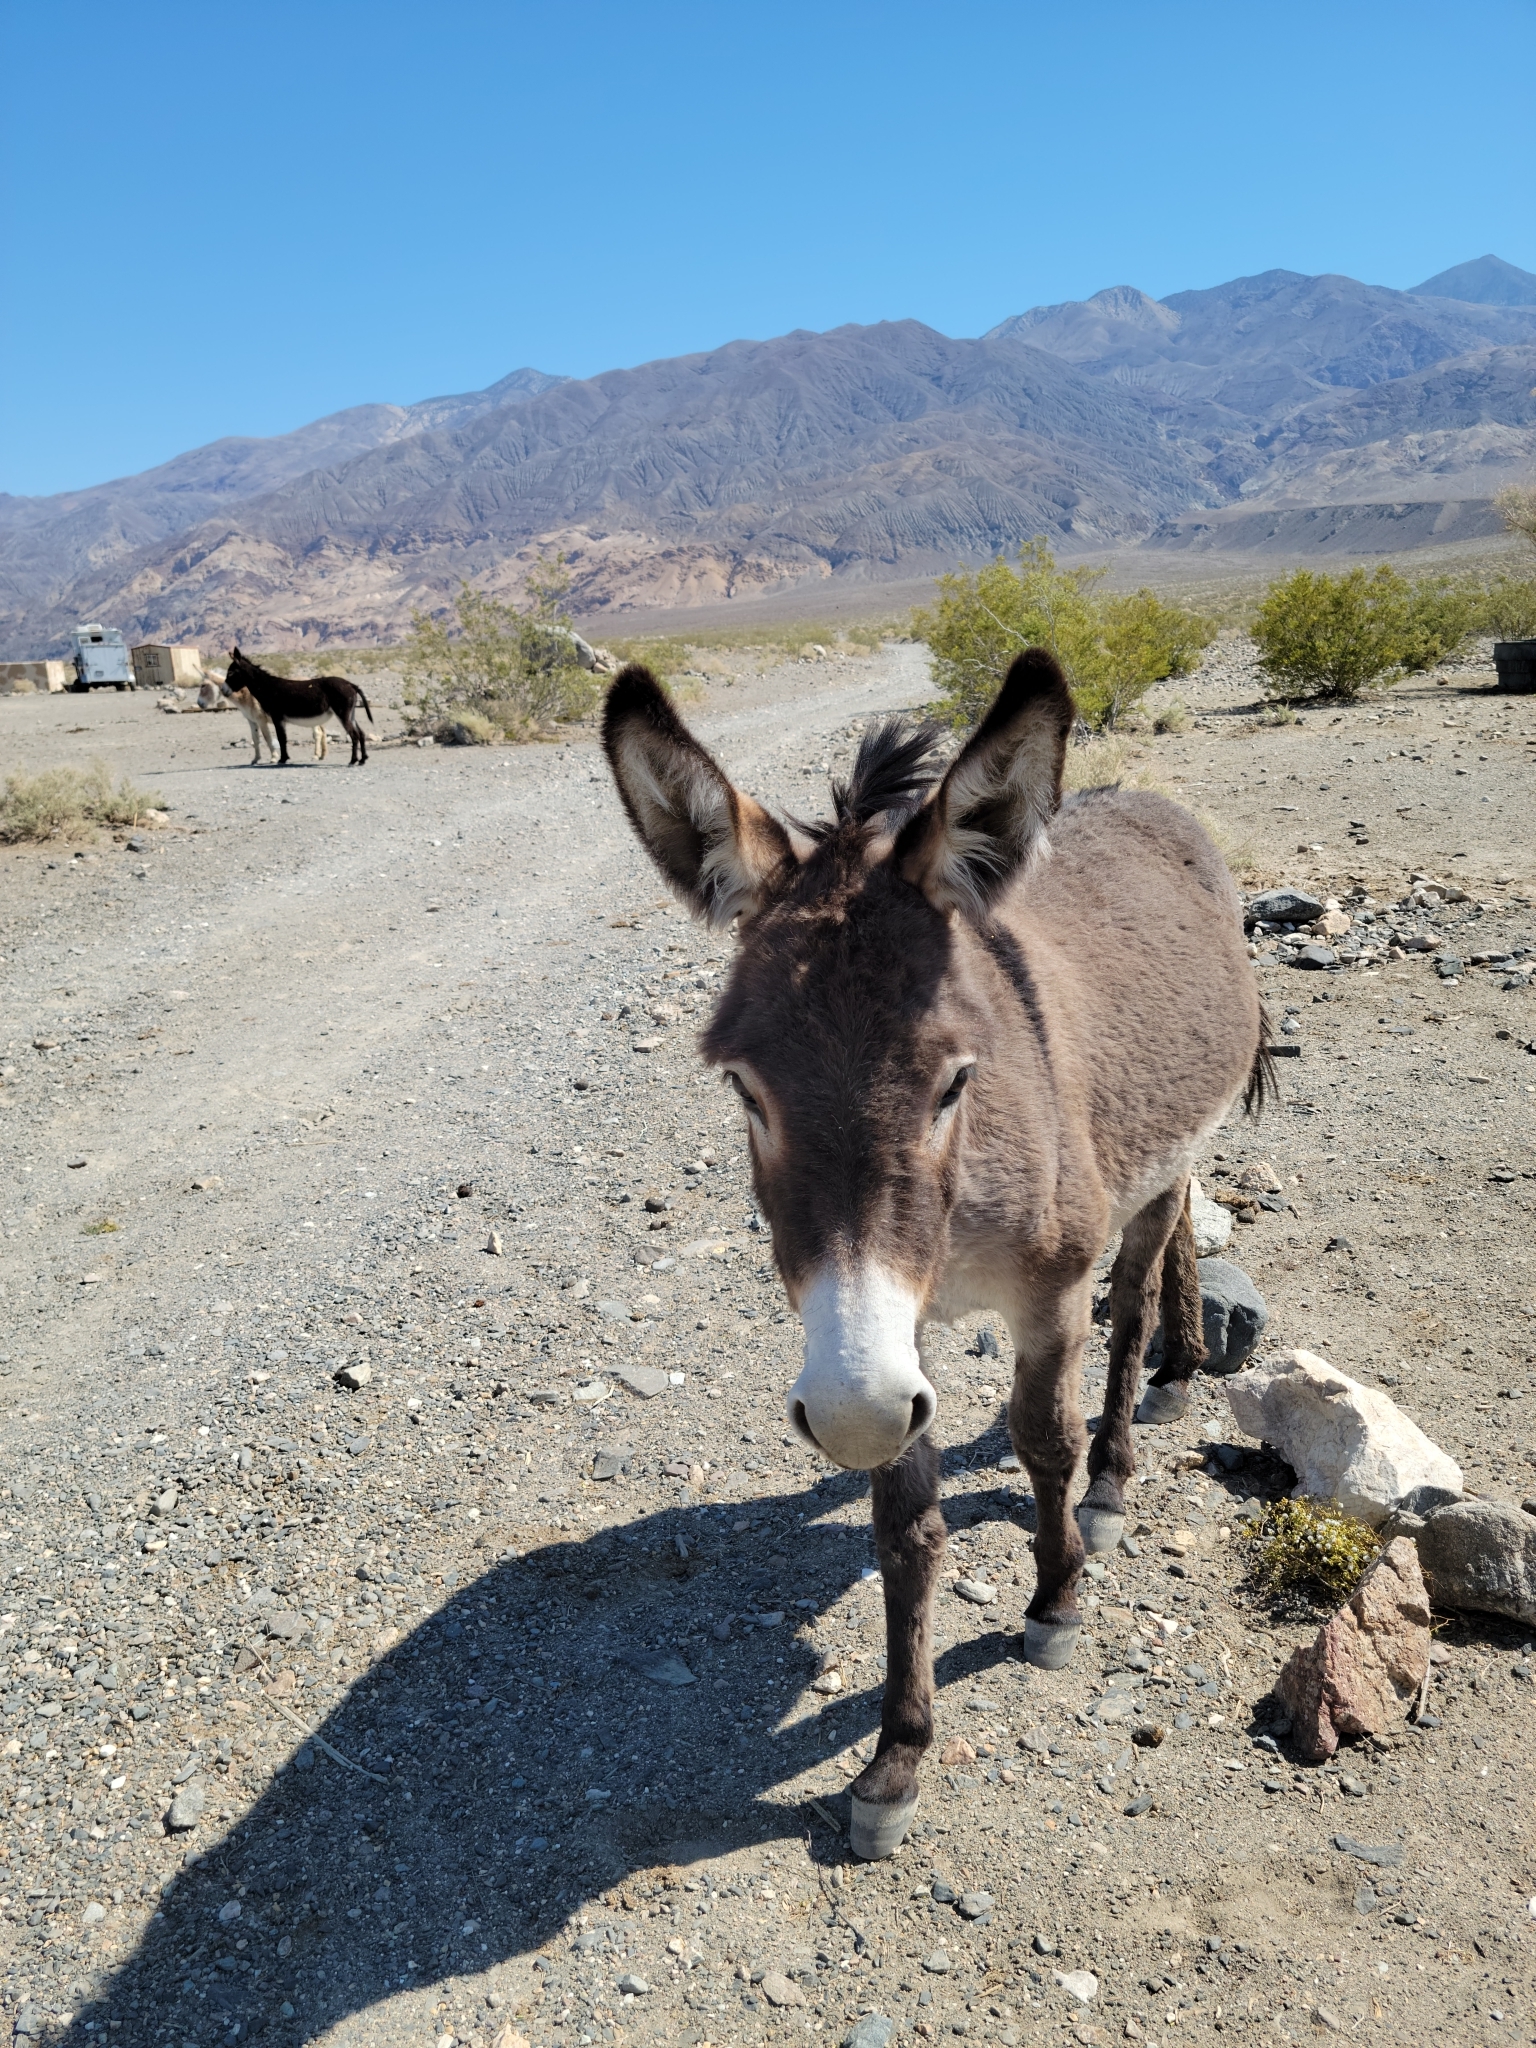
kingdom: Animalia
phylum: Chordata
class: Mammalia
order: Perissodactyla
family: Equidae
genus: Equus
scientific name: Equus asinus
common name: Ass
